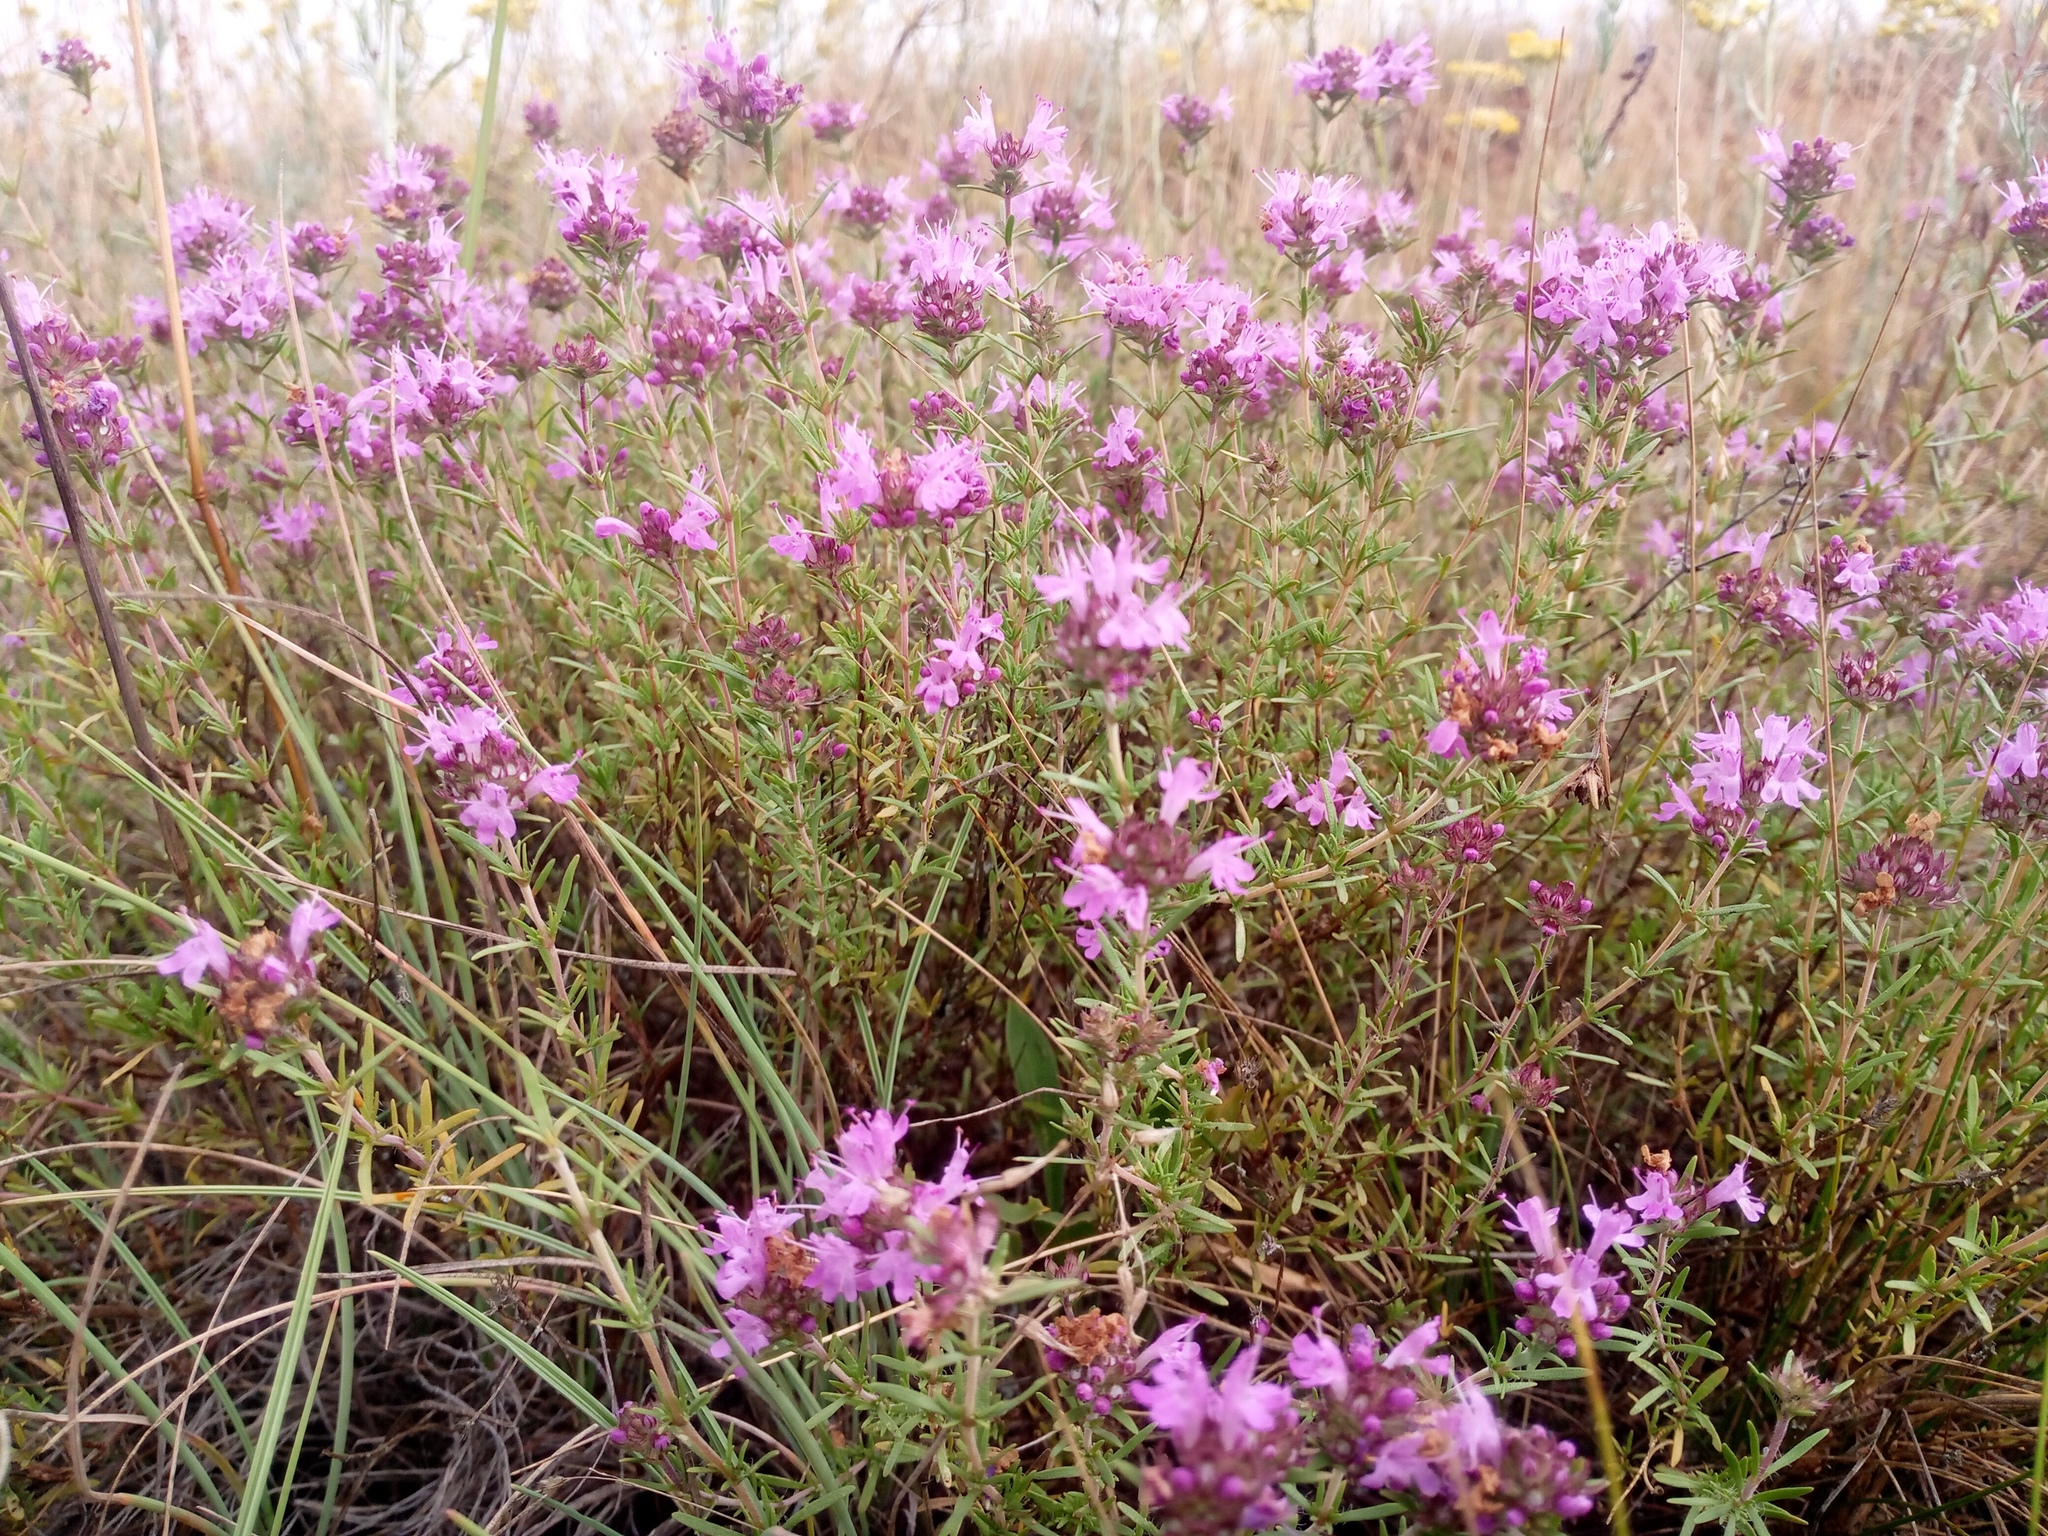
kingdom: Plantae
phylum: Tracheophyta
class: Magnoliopsida
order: Lamiales
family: Lamiaceae
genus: Thymus
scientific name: Thymus pallasianus
